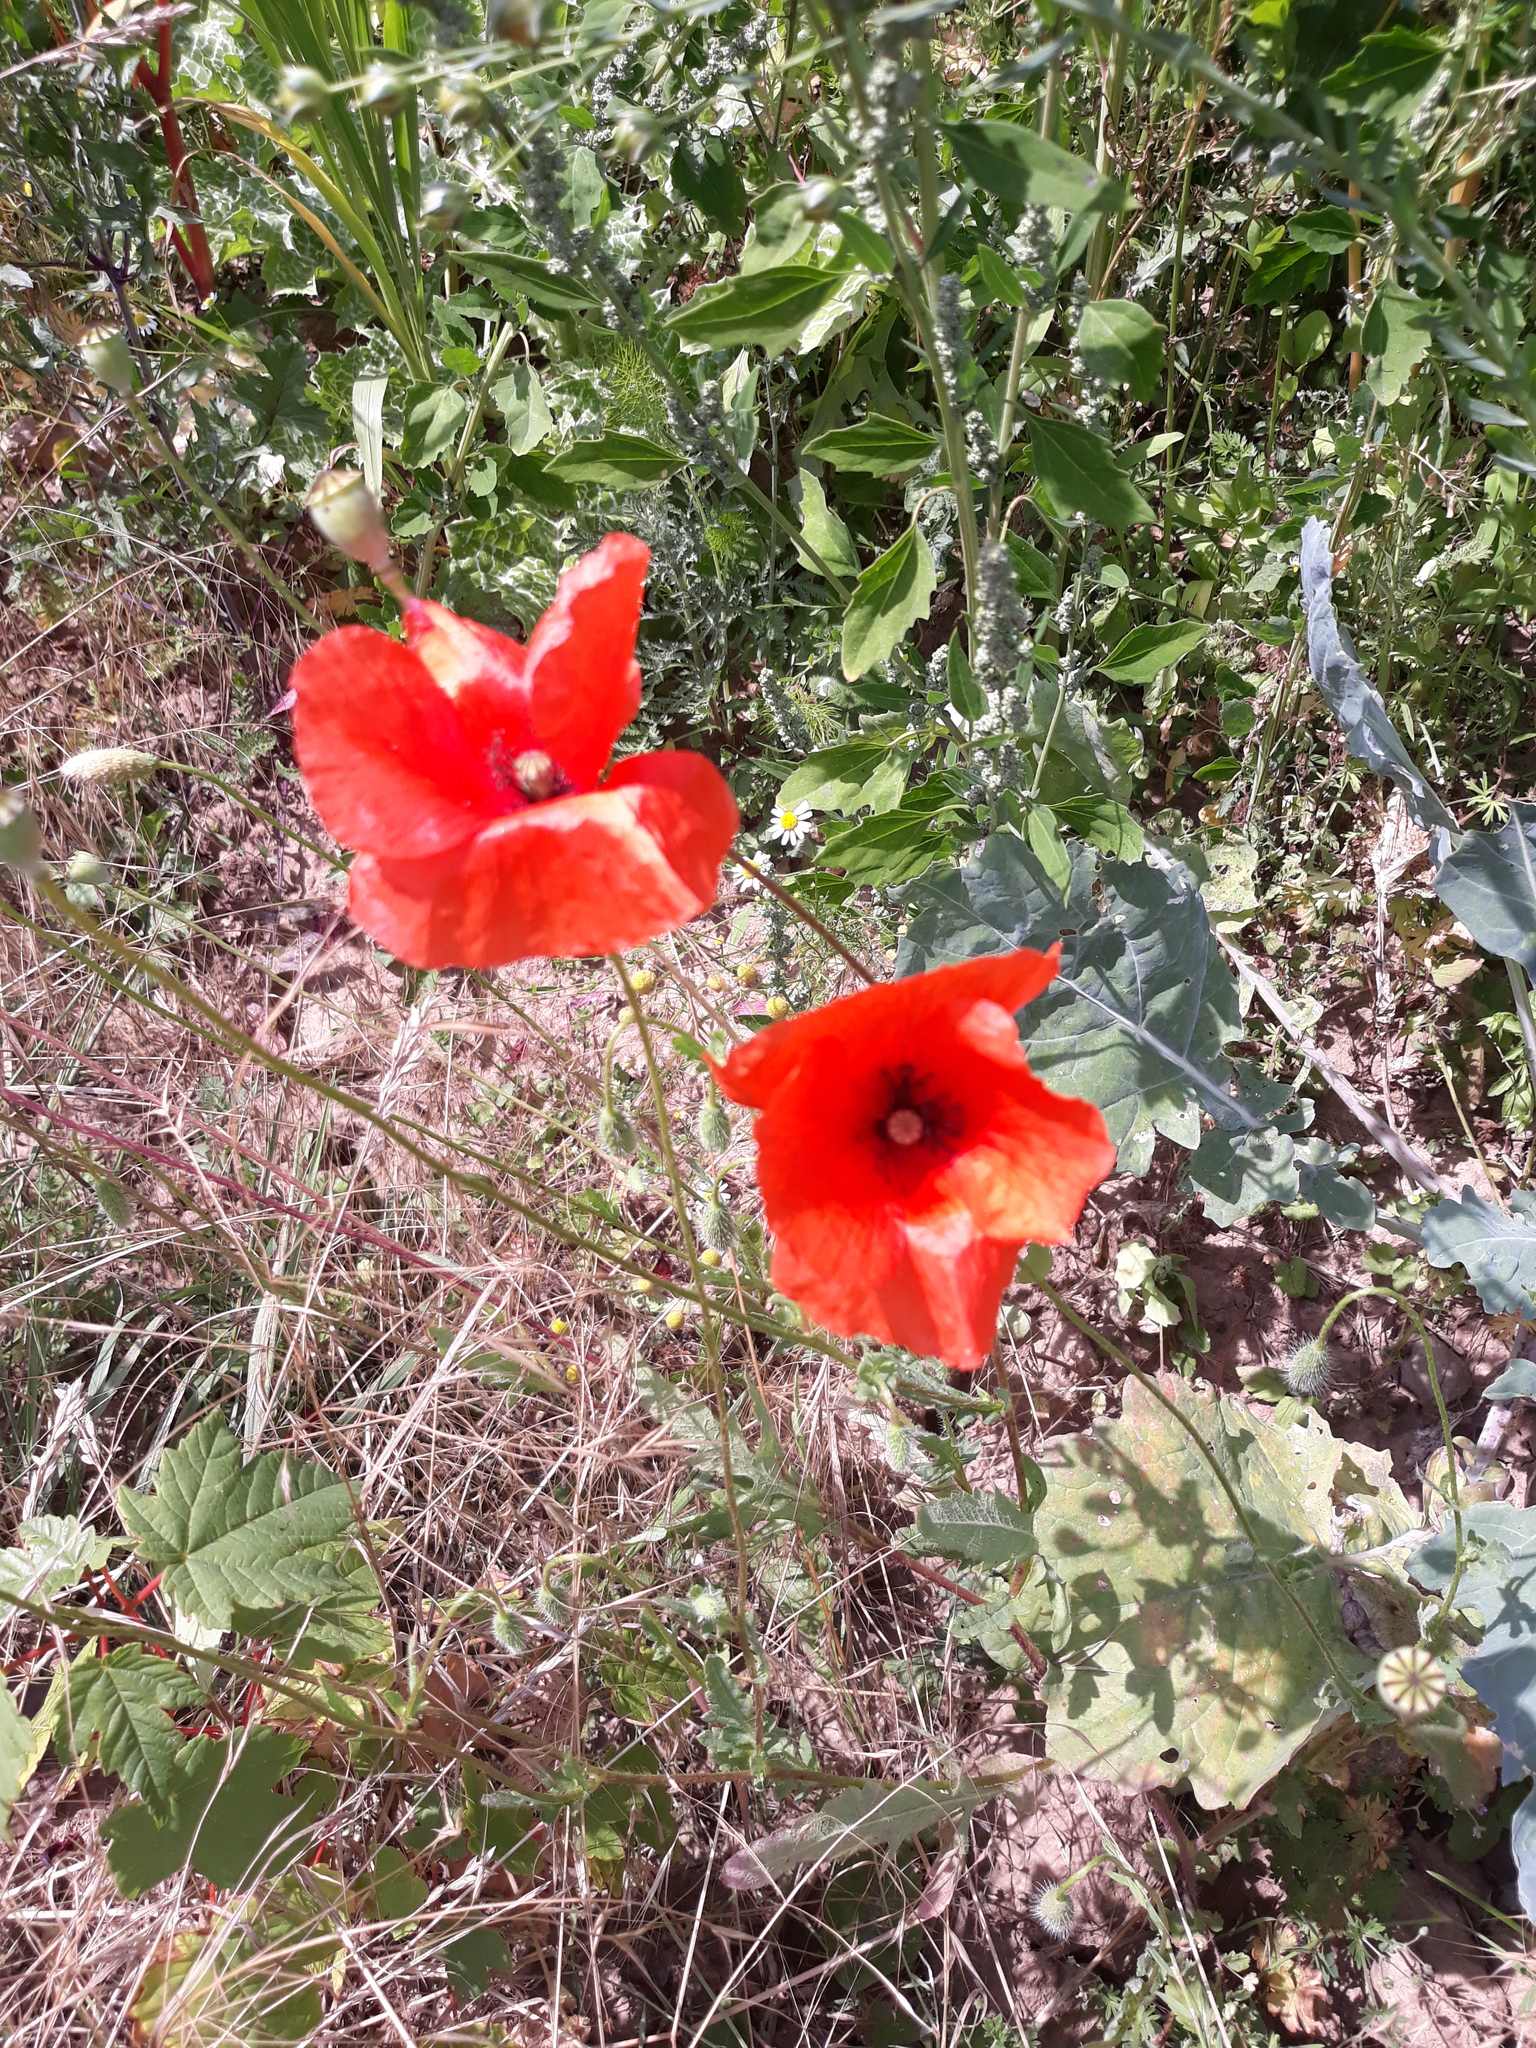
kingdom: Plantae
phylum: Tracheophyta
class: Magnoliopsida
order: Ranunculales
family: Papaveraceae
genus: Papaver
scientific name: Papaver rhoeas
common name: Corn poppy
